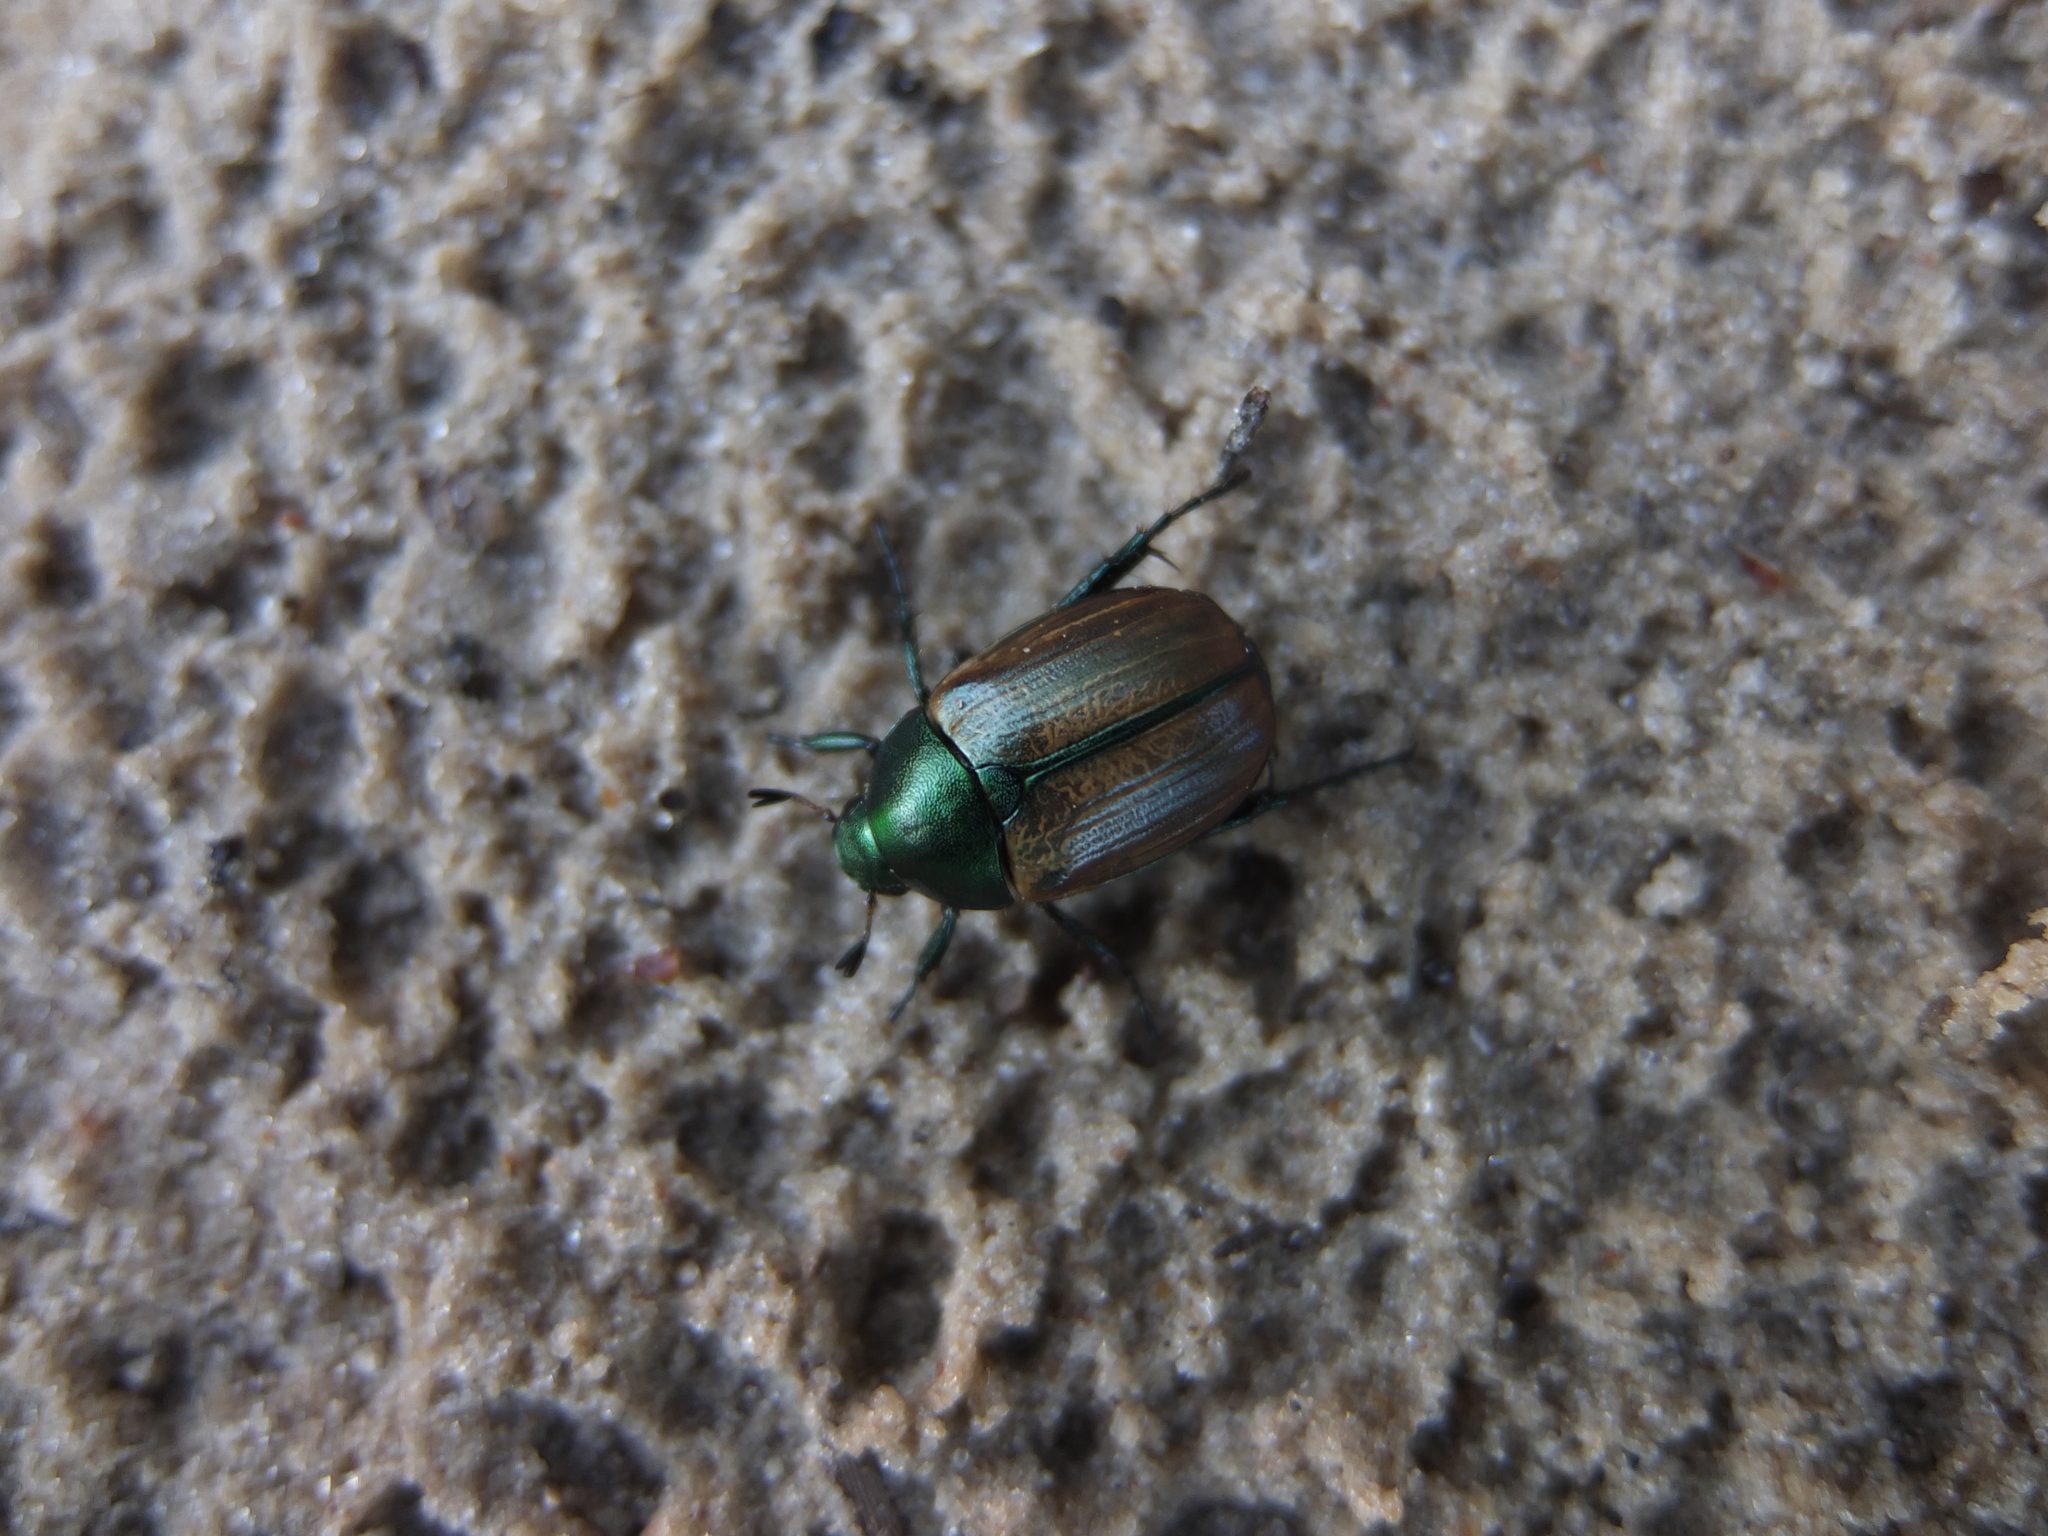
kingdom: Animalia
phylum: Arthropoda
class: Insecta
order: Coleoptera
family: Scarabaeidae
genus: Anomala
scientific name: Anomala dubia
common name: Dune chafer
